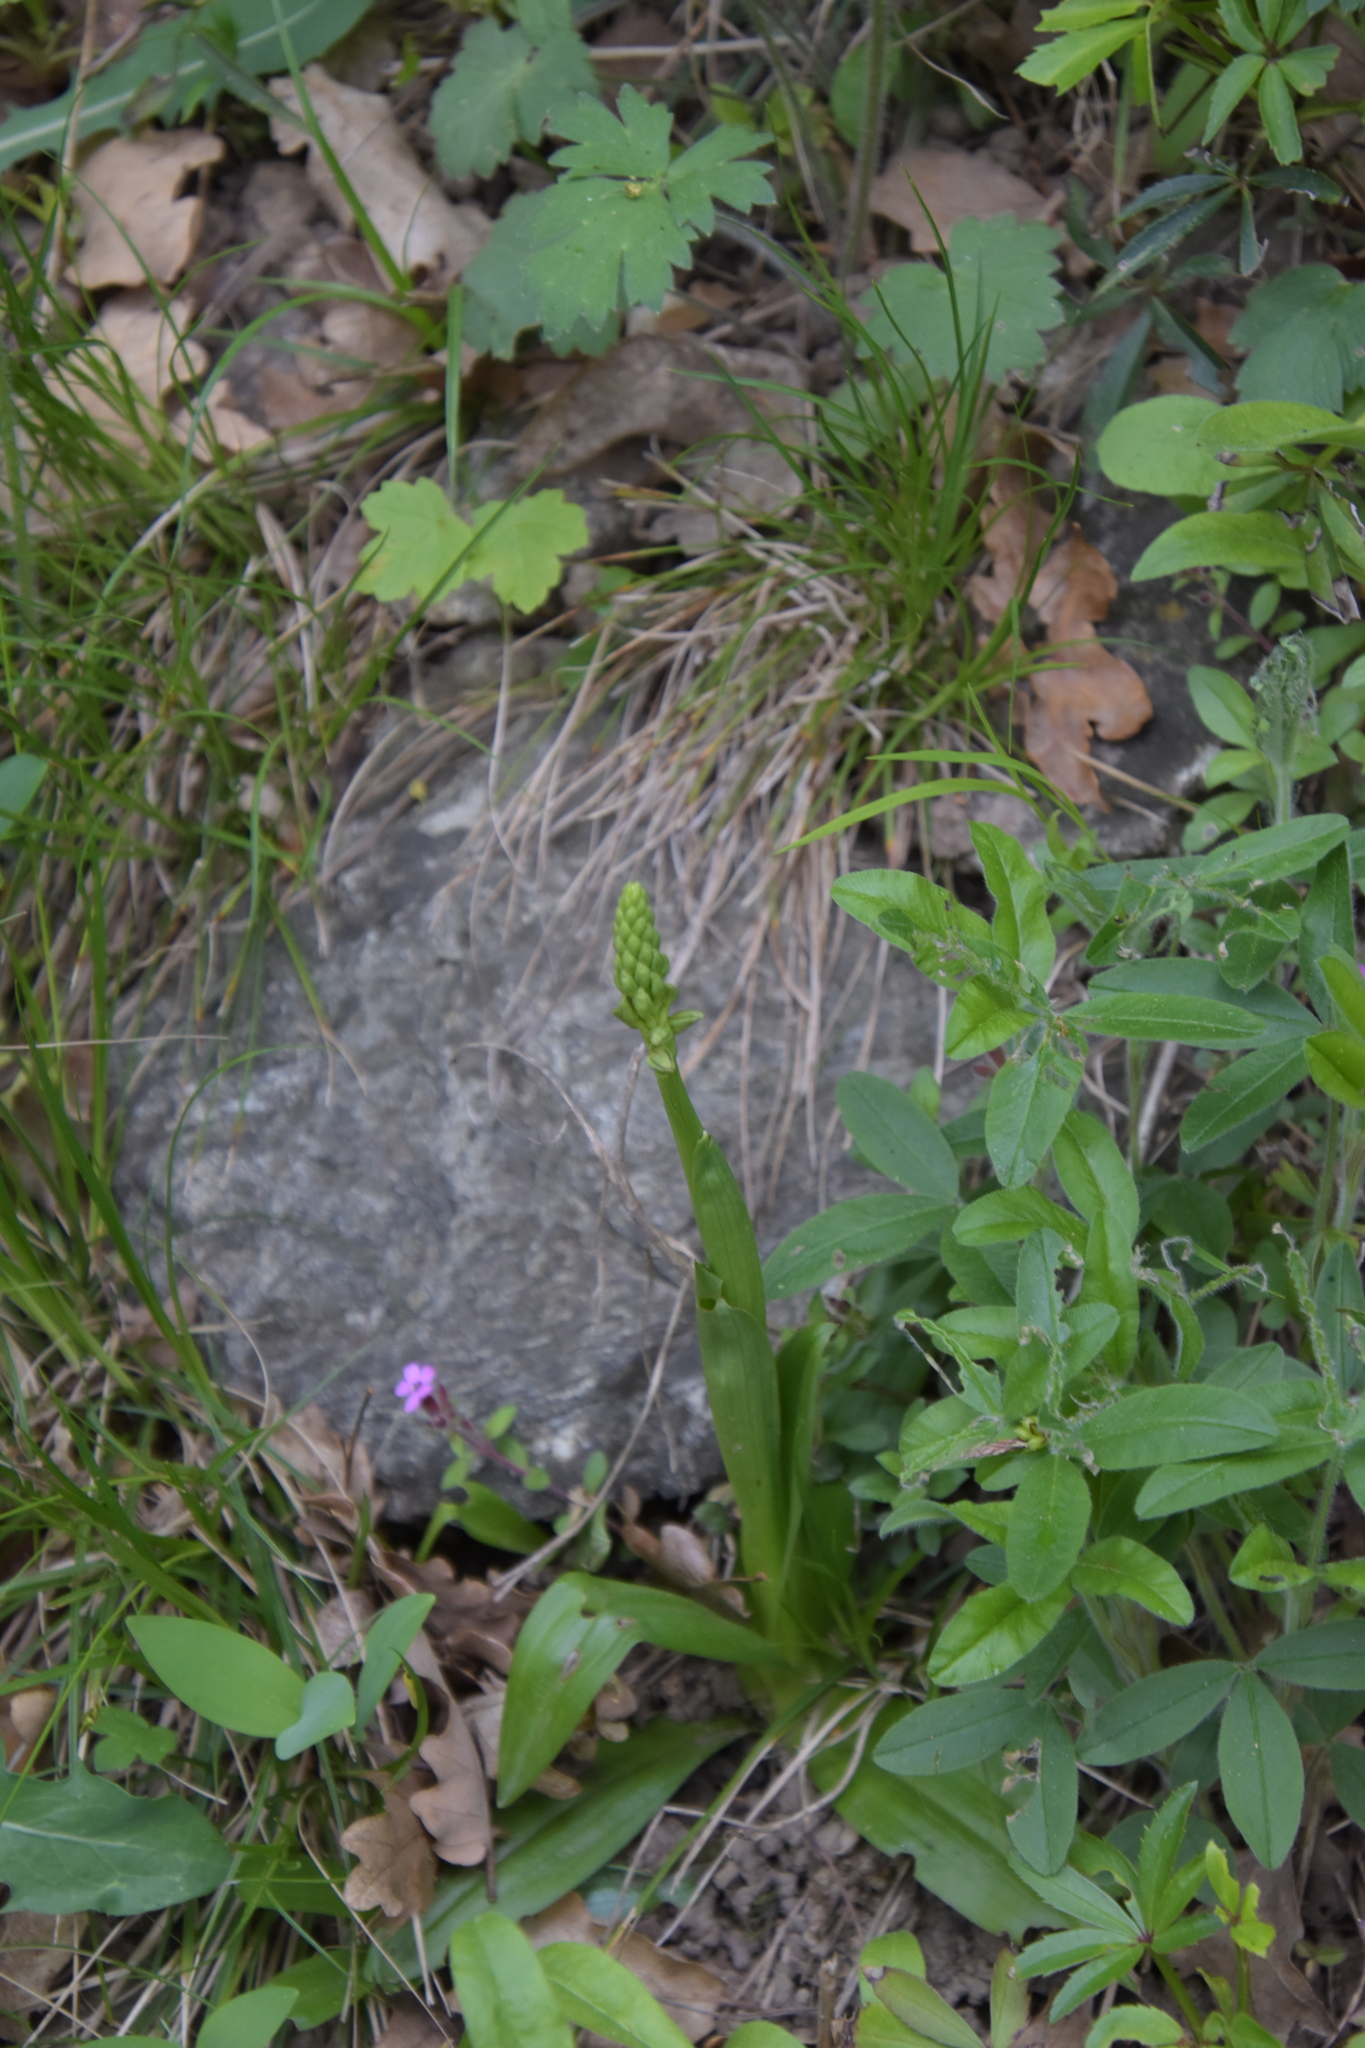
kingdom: Plantae
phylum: Tracheophyta
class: Liliopsida
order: Asparagales
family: Orchidaceae
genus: Orchis
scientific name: Orchis anthropophora
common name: Man orchid
